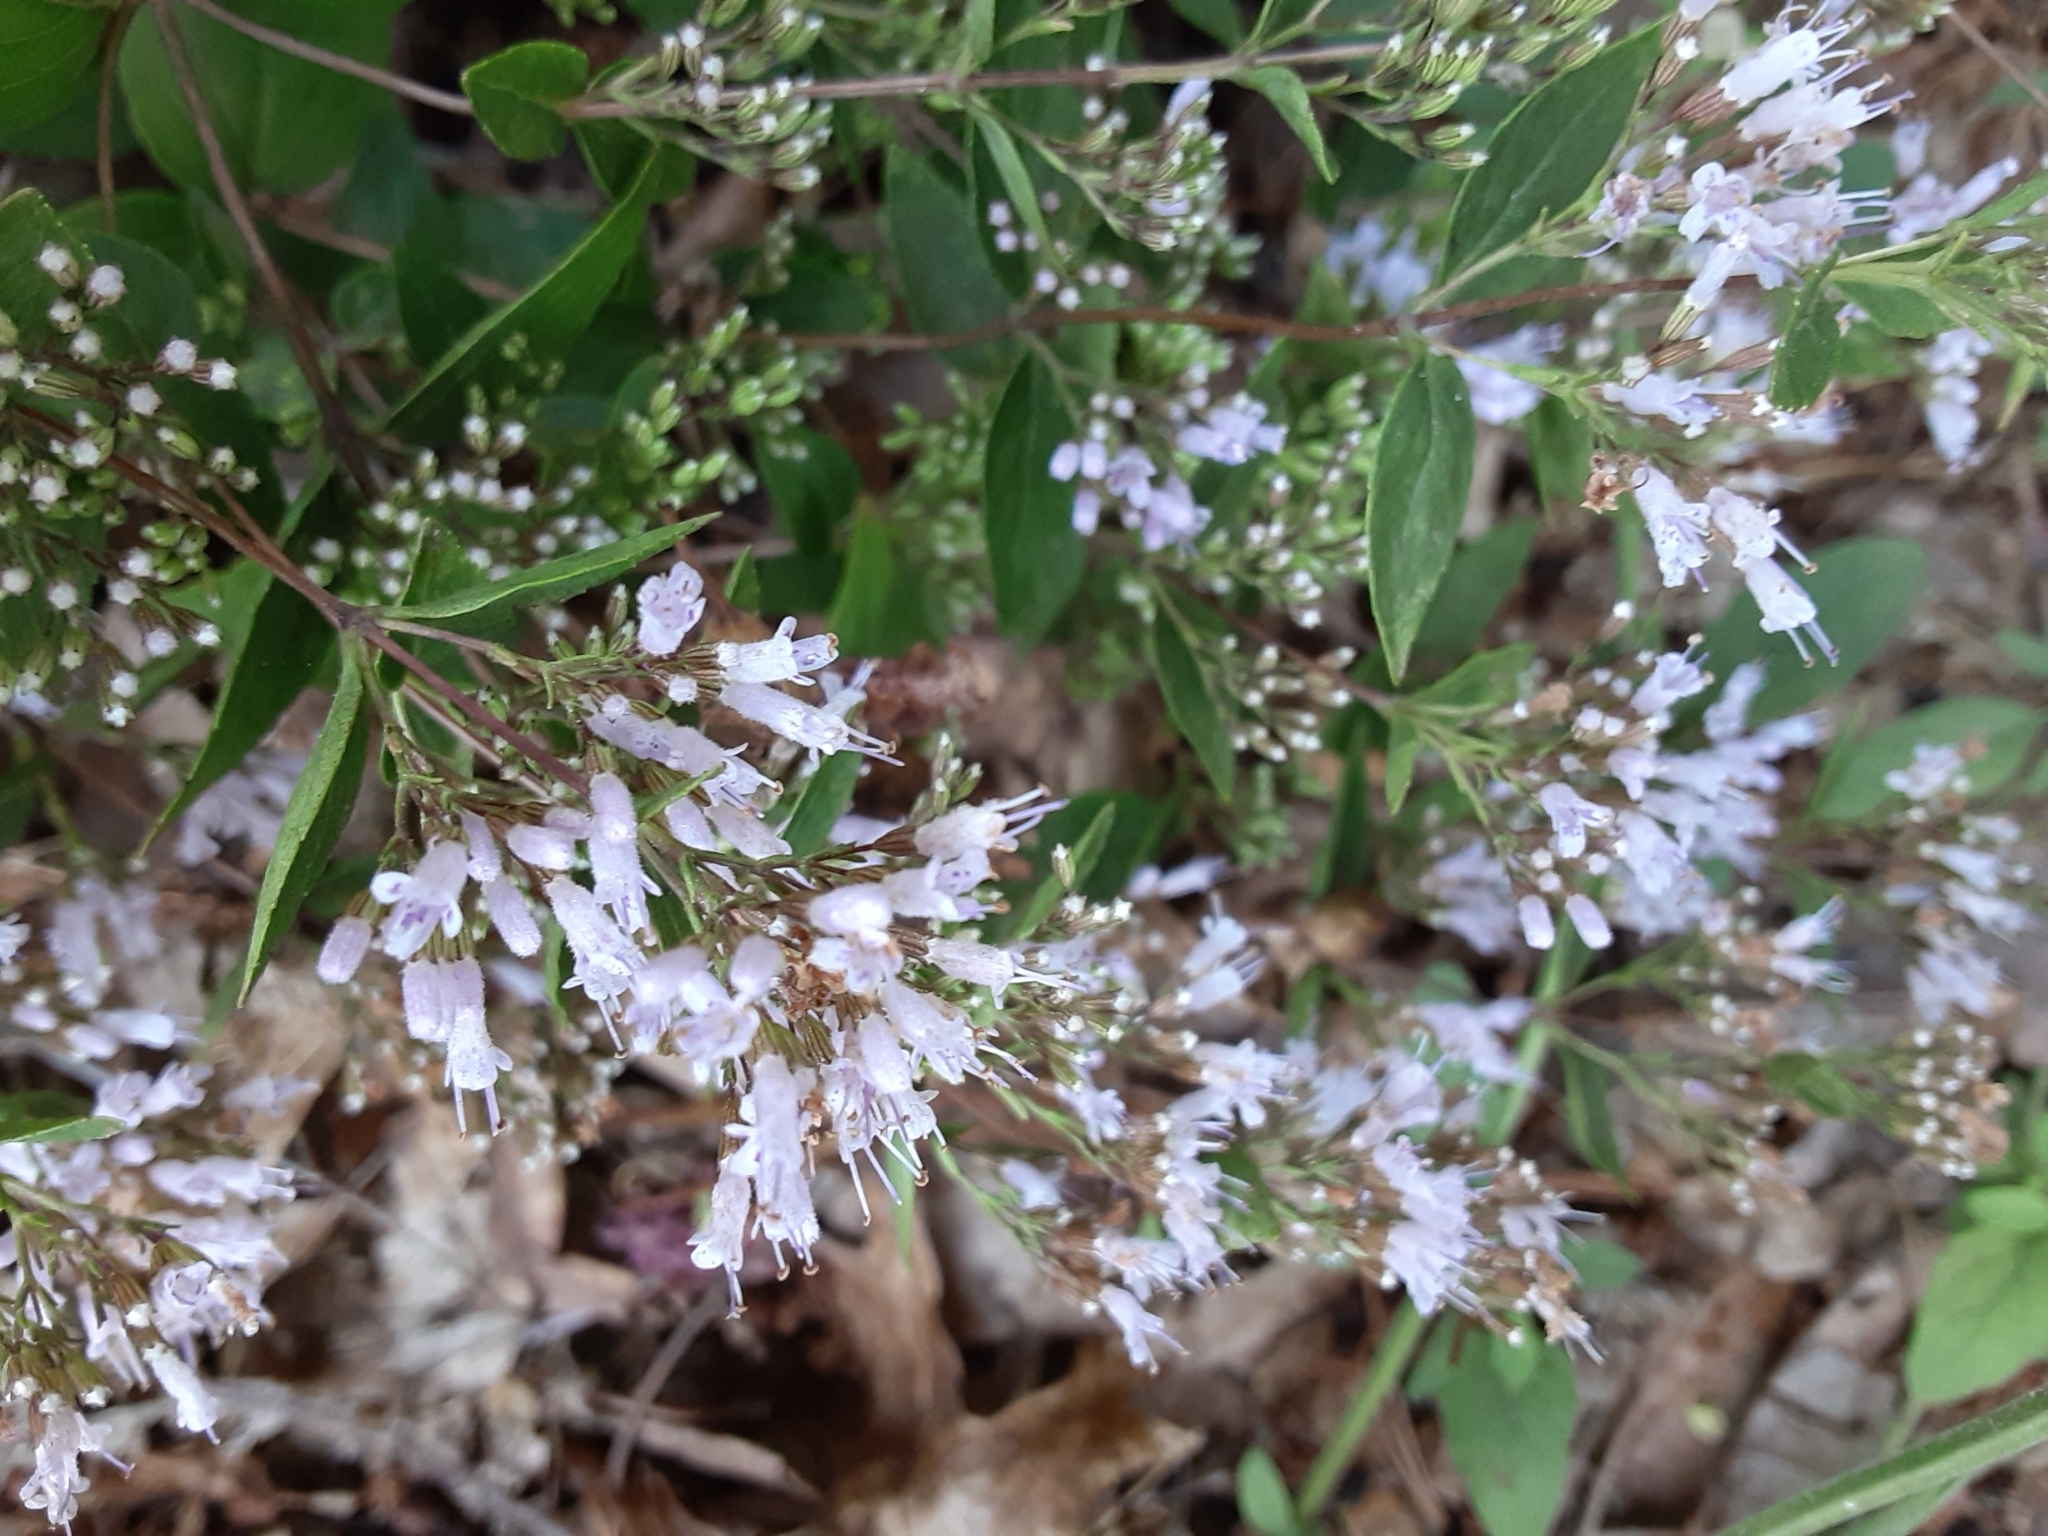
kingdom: Plantae
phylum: Tracheophyta
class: Magnoliopsida
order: Lamiales
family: Lamiaceae
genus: Cunila
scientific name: Cunila origanoides
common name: American dittany
